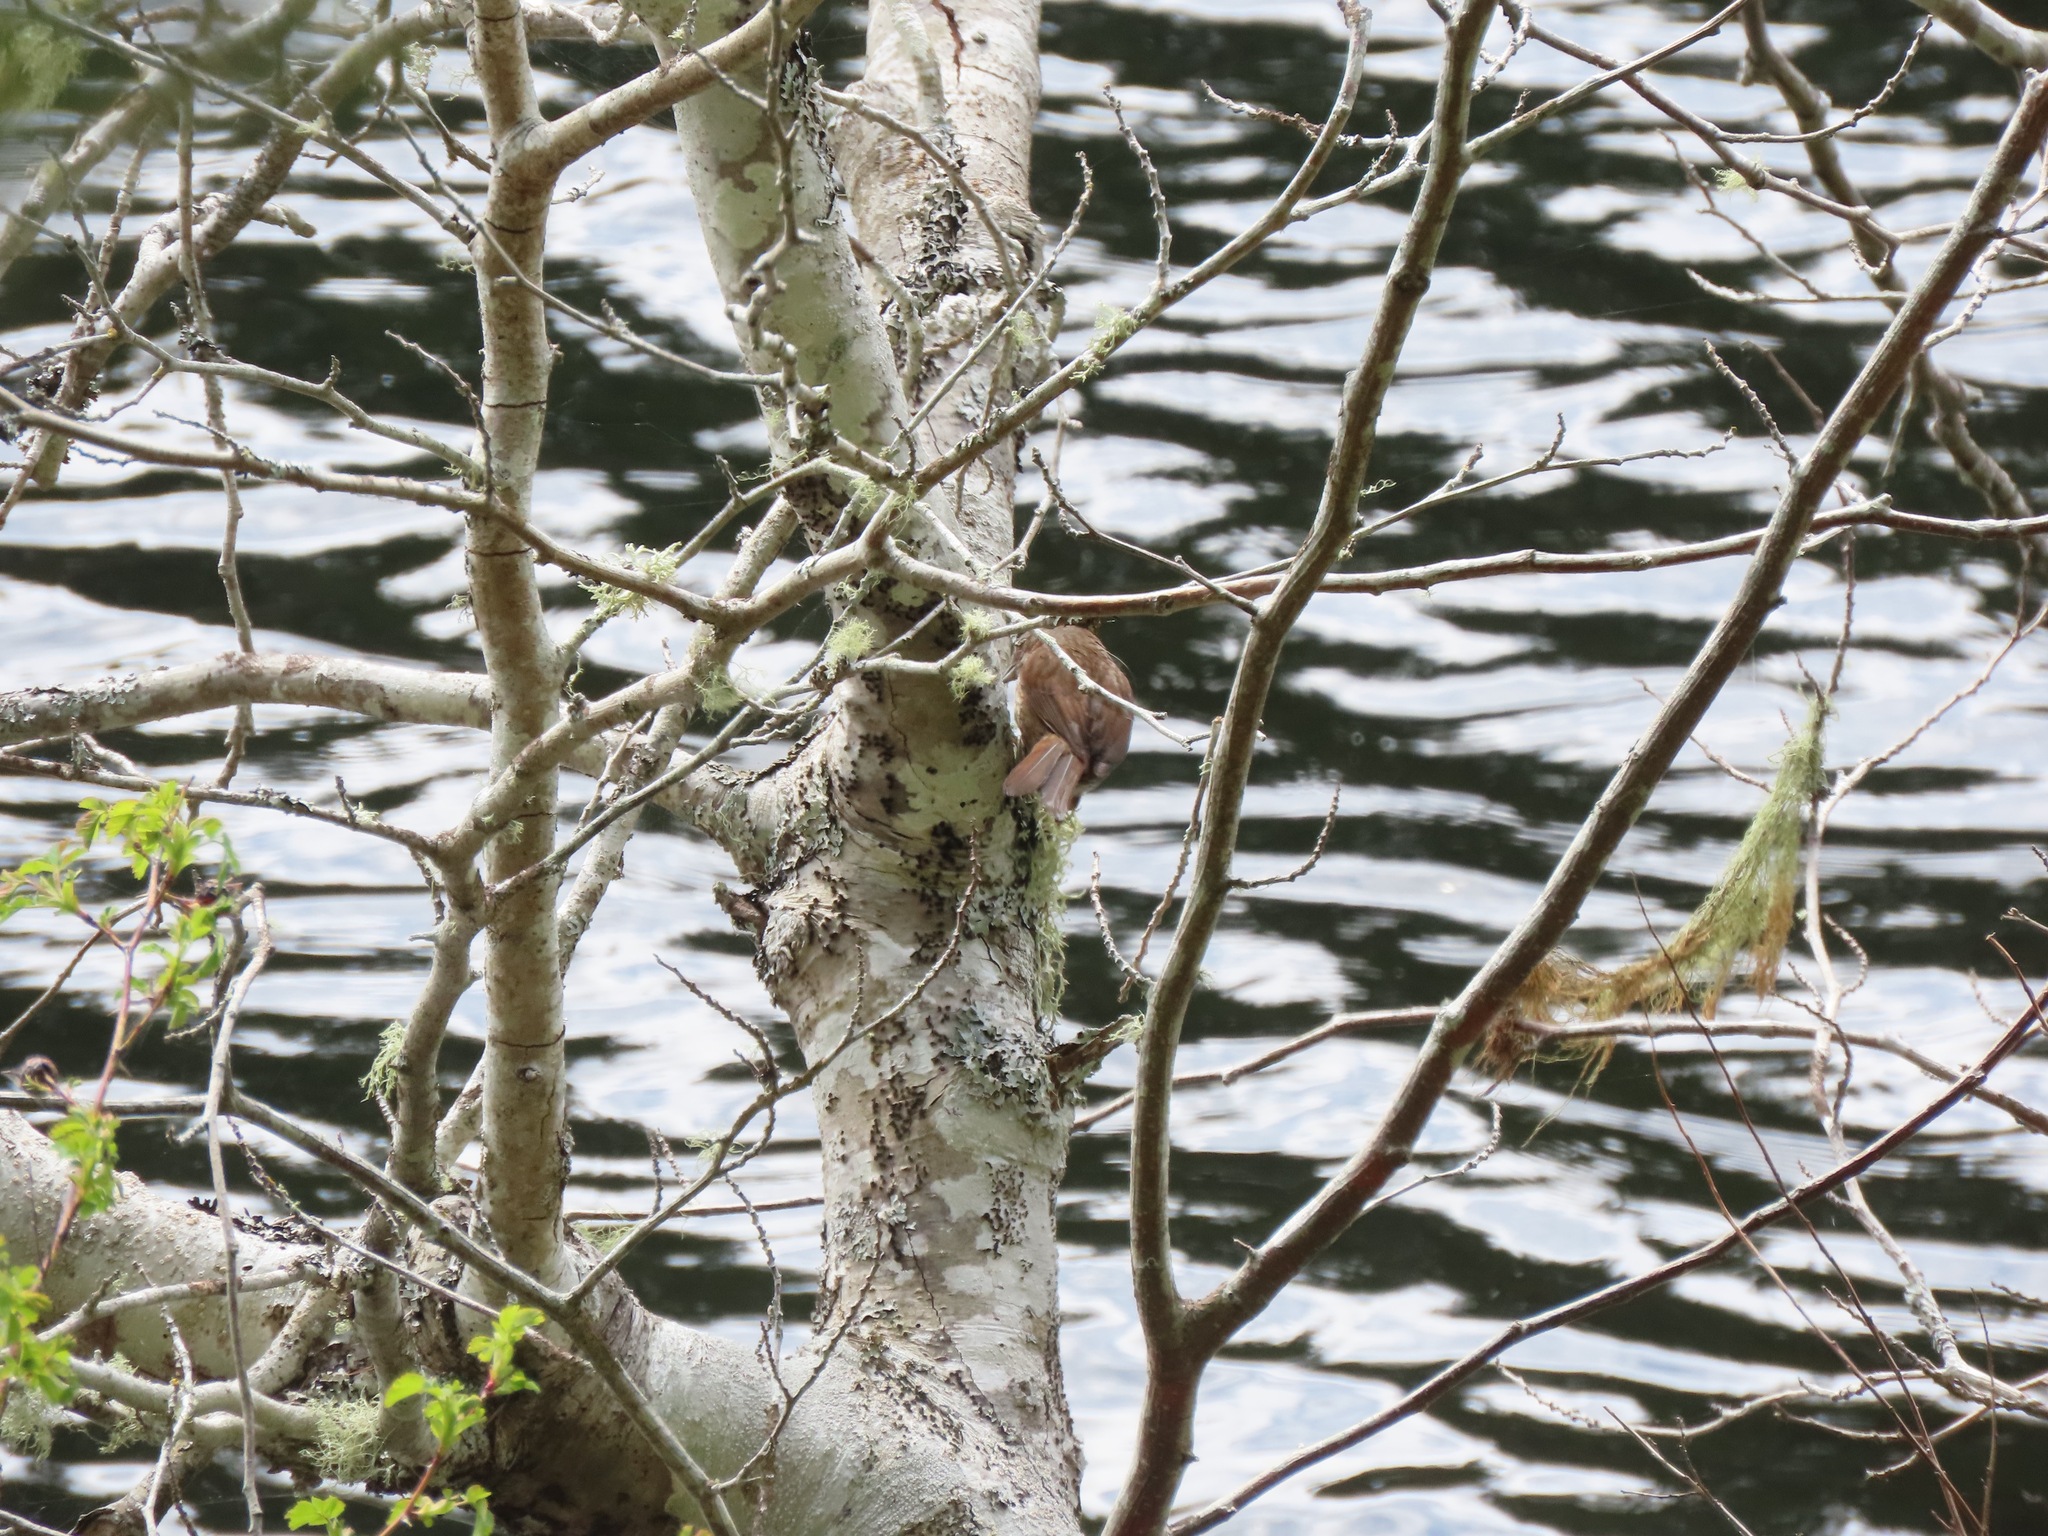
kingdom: Animalia
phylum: Chordata
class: Aves
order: Passeriformes
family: Passerellidae
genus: Melospiza
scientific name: Melospiza melodia
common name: Song sparrow
